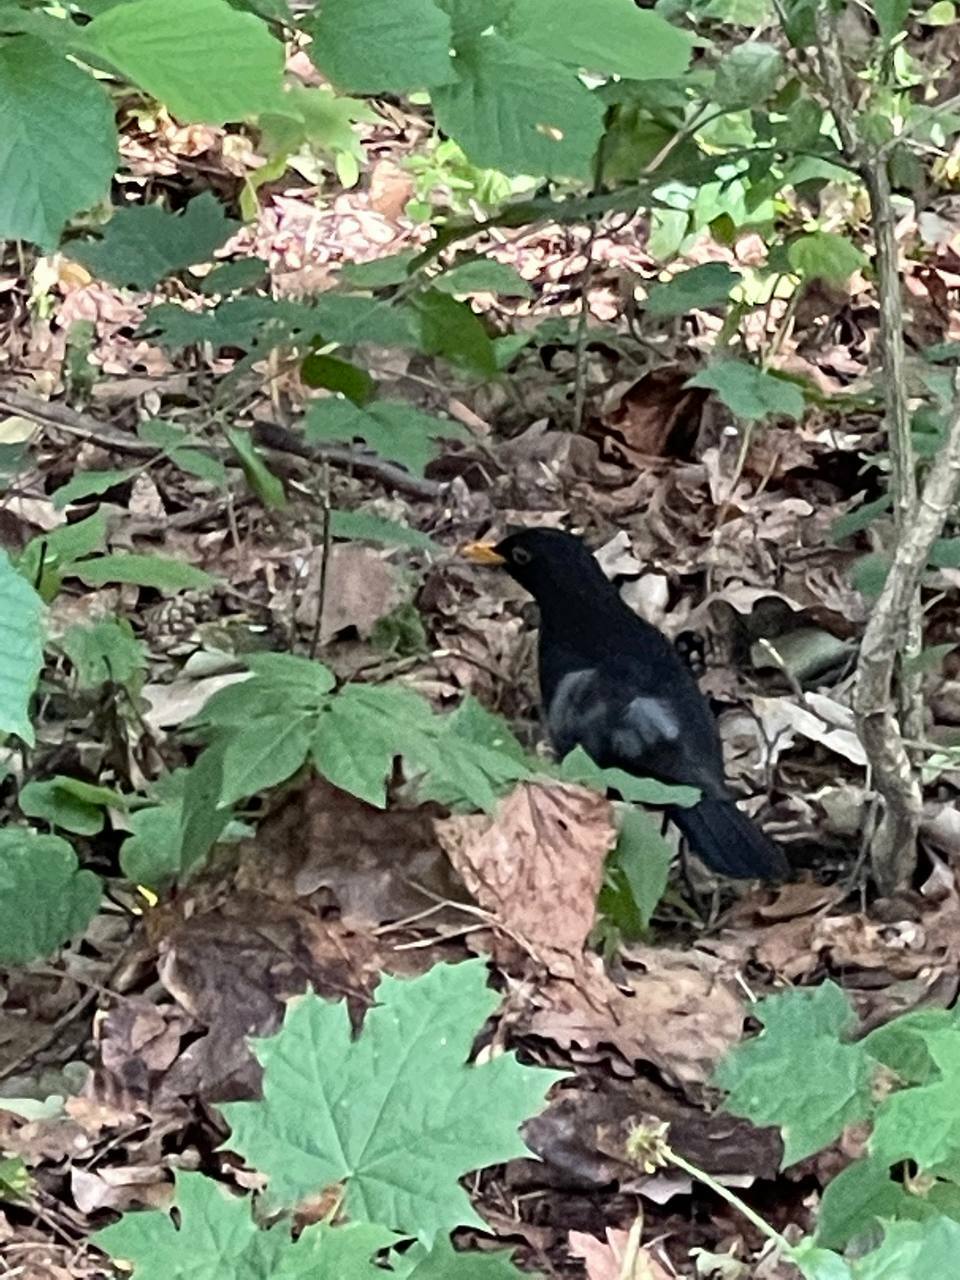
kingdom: Animalia
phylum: Chordata
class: Aves
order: Passeriformes
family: Turdidae
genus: Turdus
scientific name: Turdus merula
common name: Common blackbird
